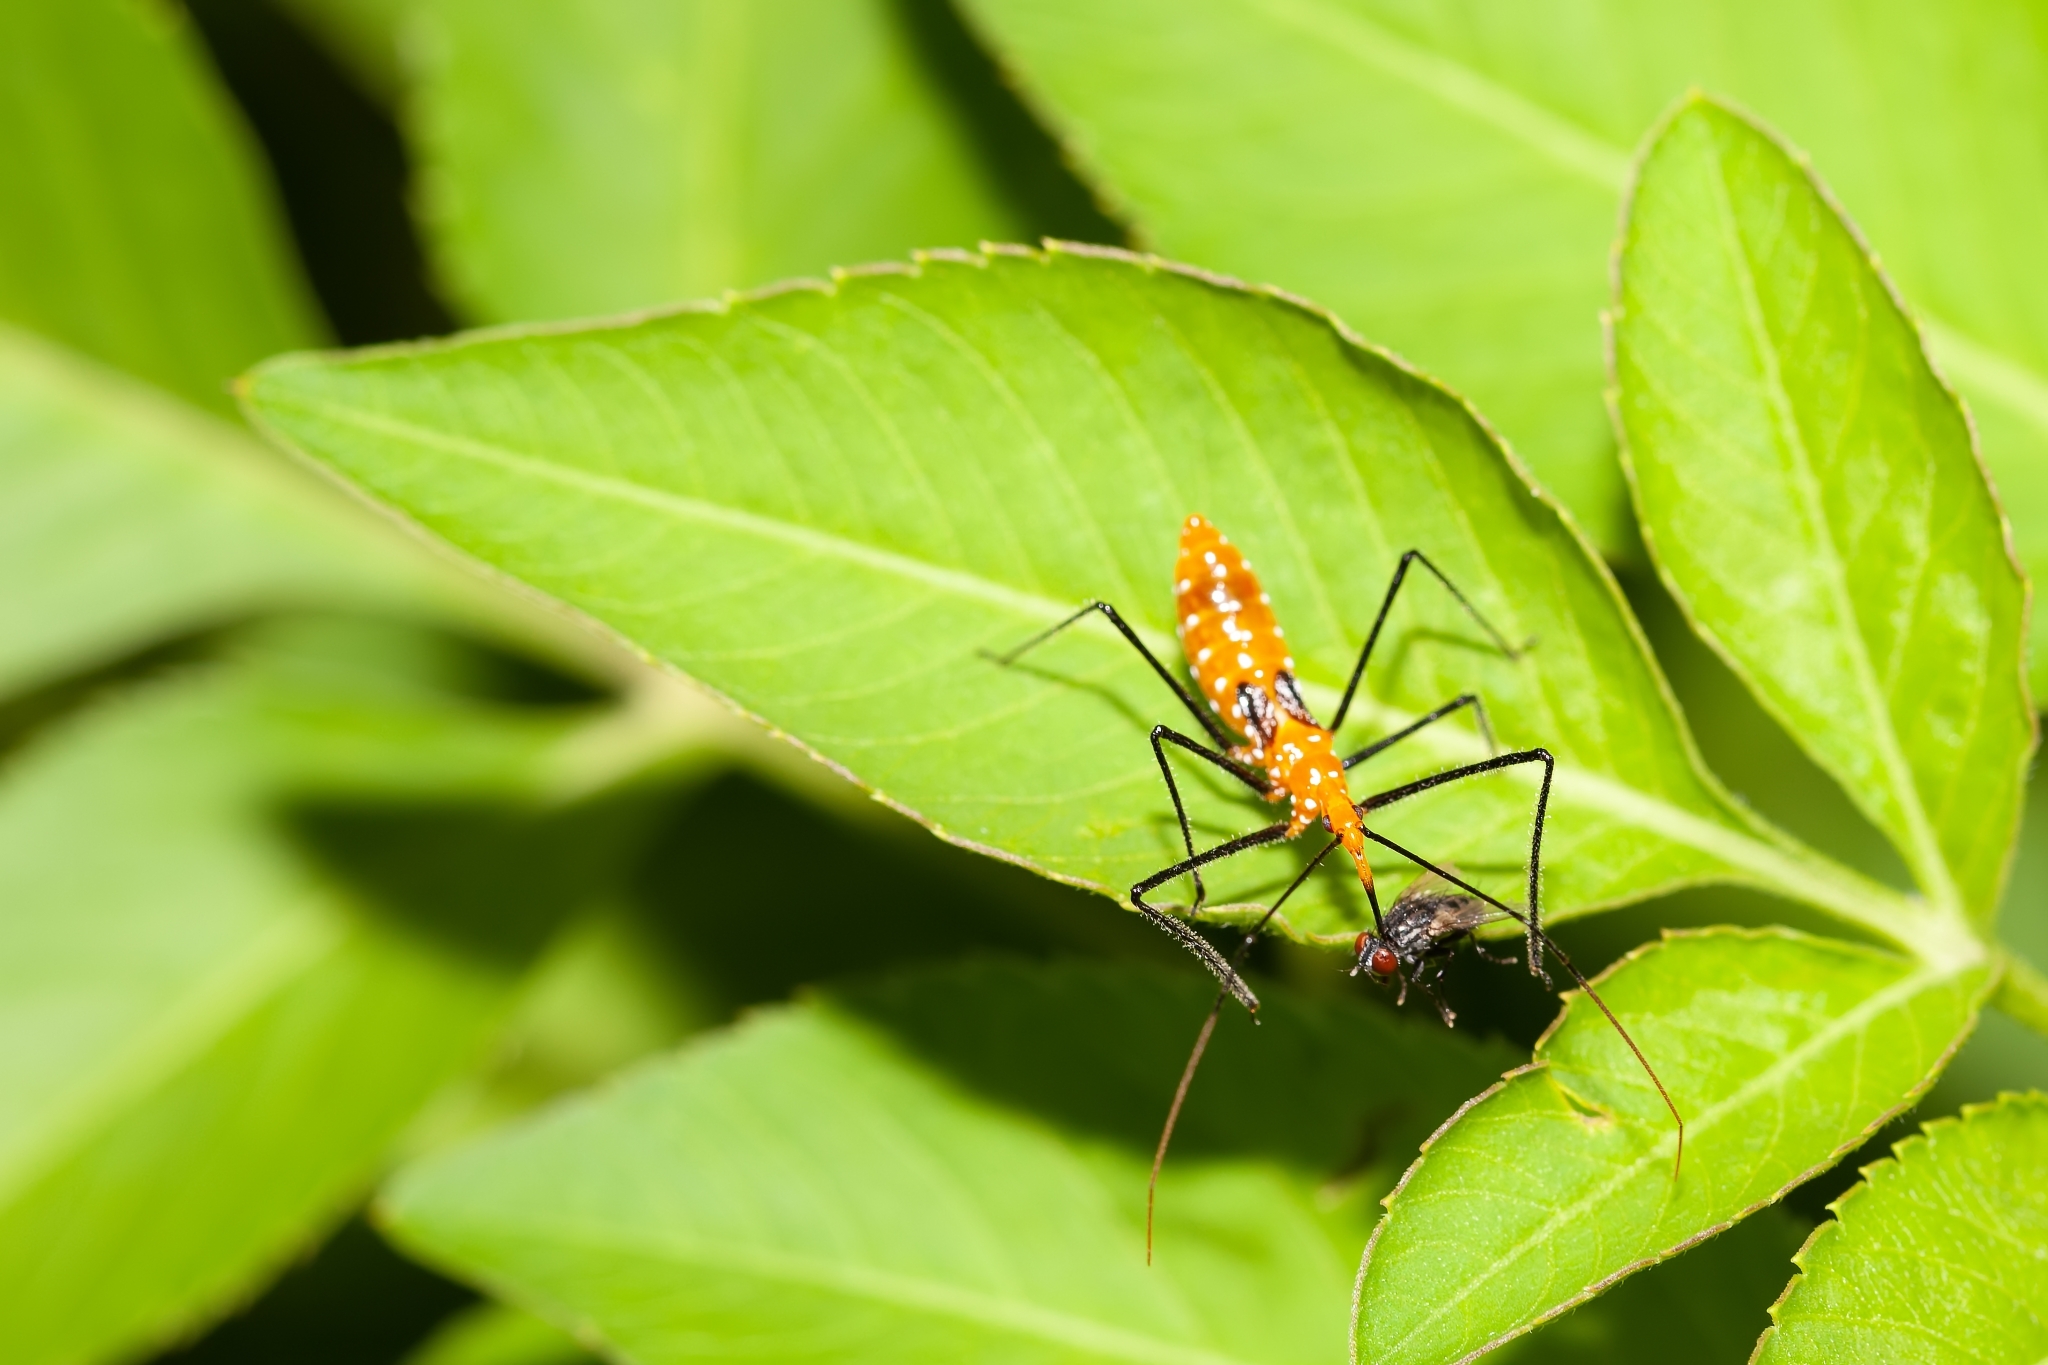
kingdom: Animalia
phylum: Arthropoda
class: Insecta
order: Hemiptera
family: Reduviidae
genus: Zelus
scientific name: Zelus longipes
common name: Milkweed assassin bug
